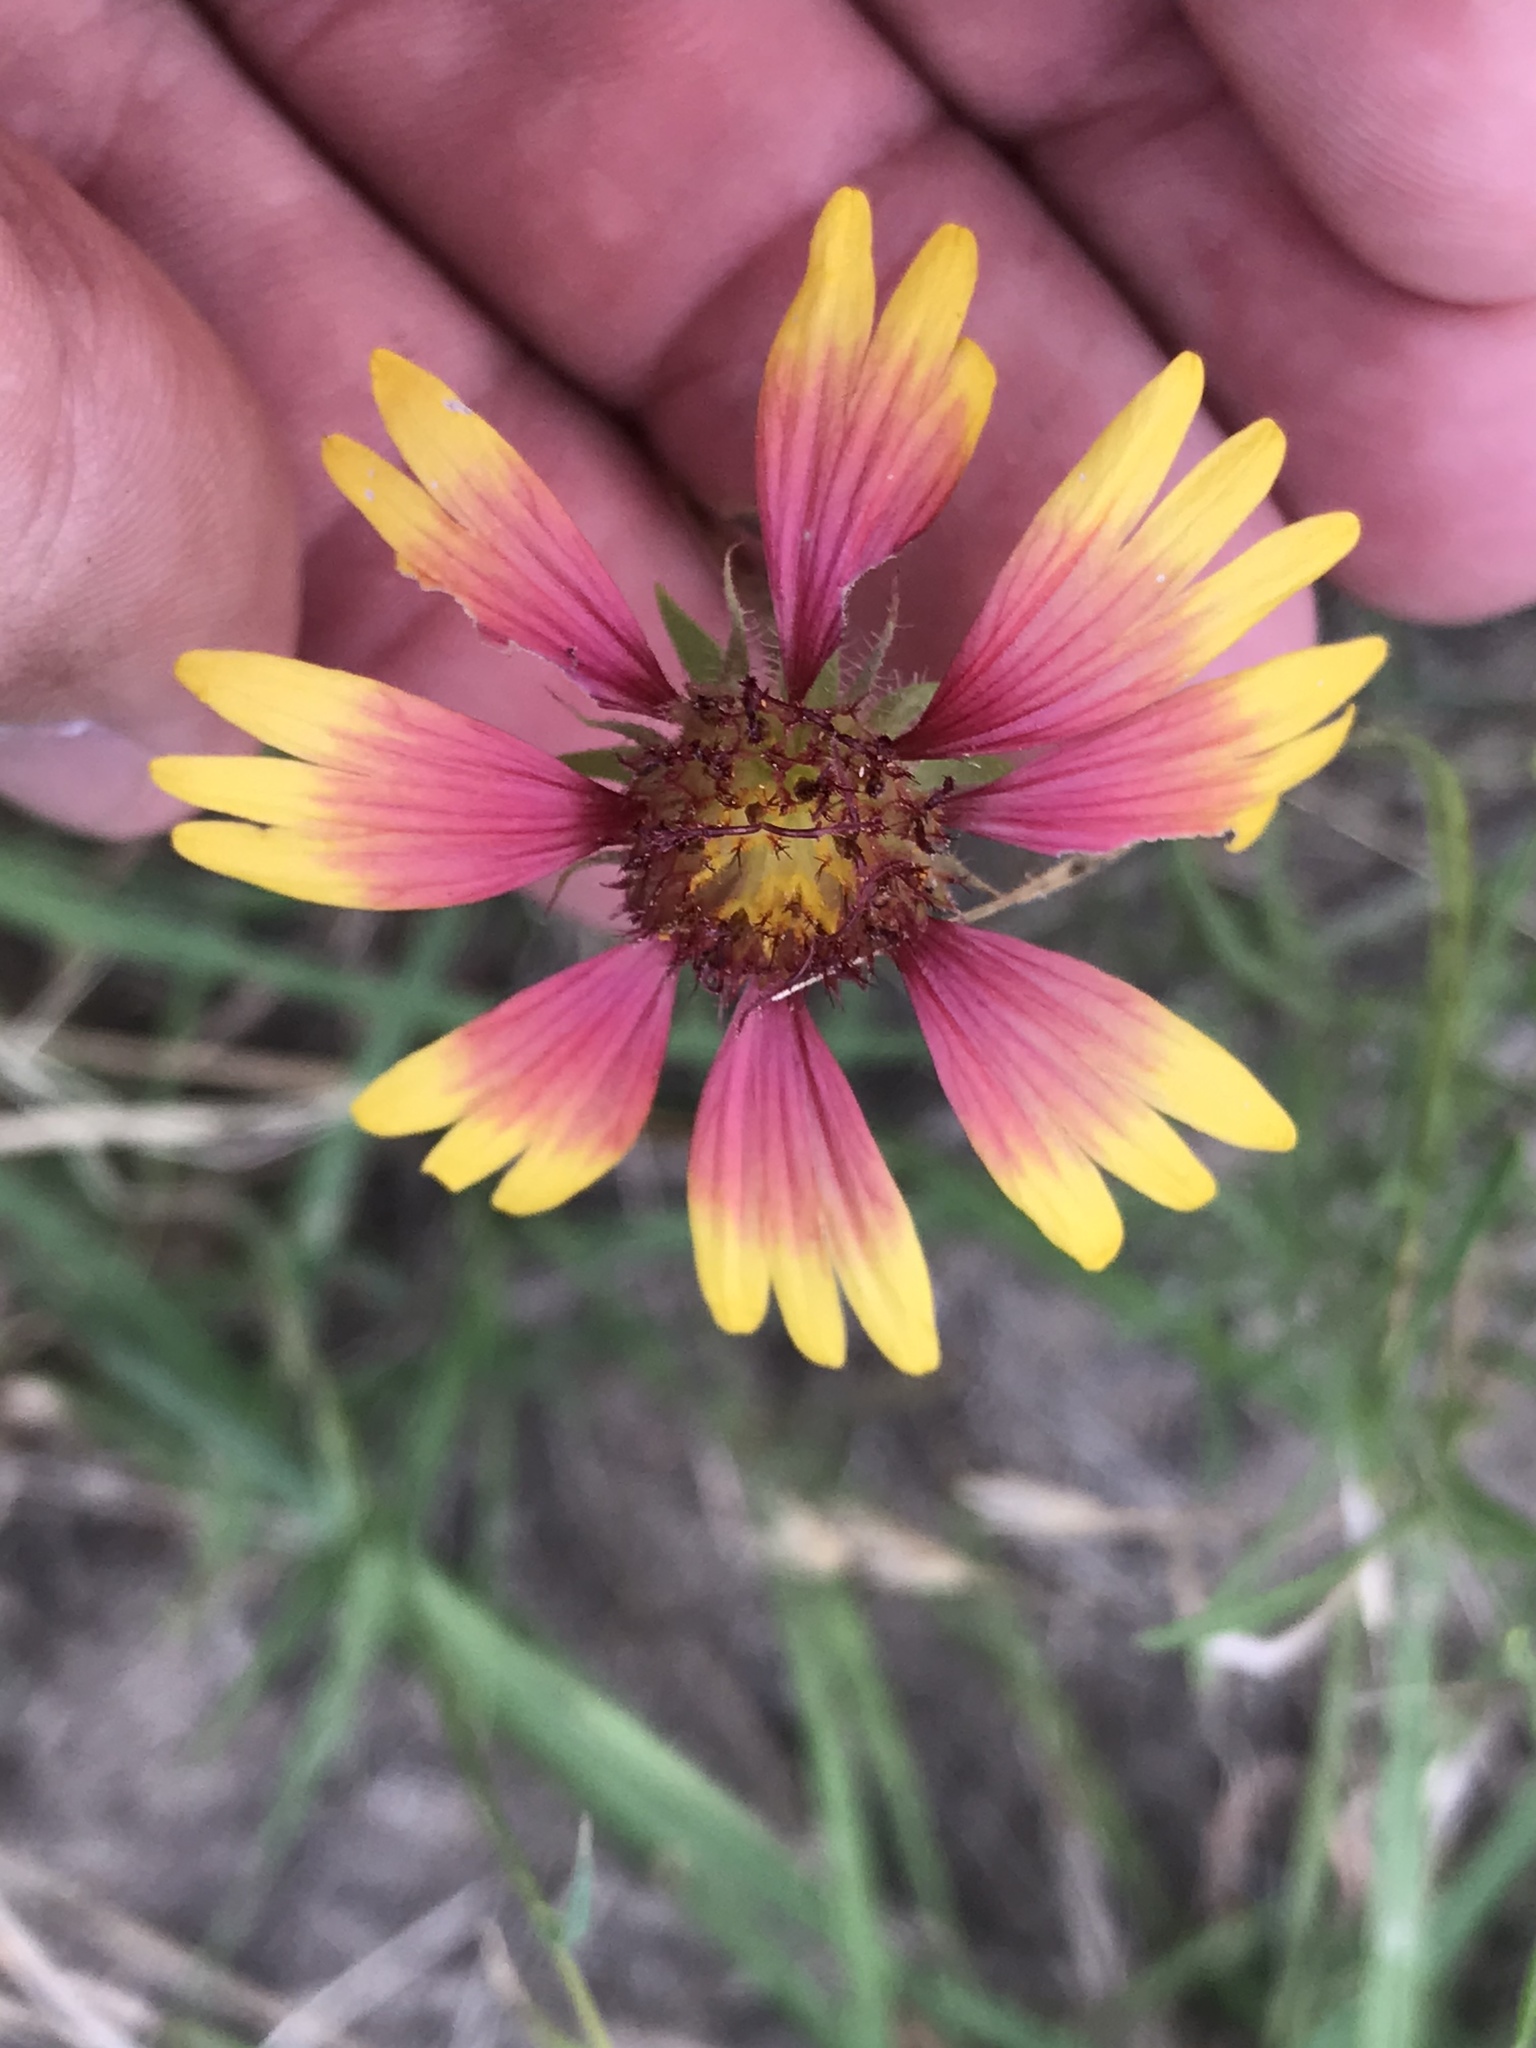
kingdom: Plantae
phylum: Tracheophyta
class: Magnoliopsida
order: Asterales
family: Asteraceae
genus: Gaillardia
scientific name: Gaillardia pulchella
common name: Firewheel
